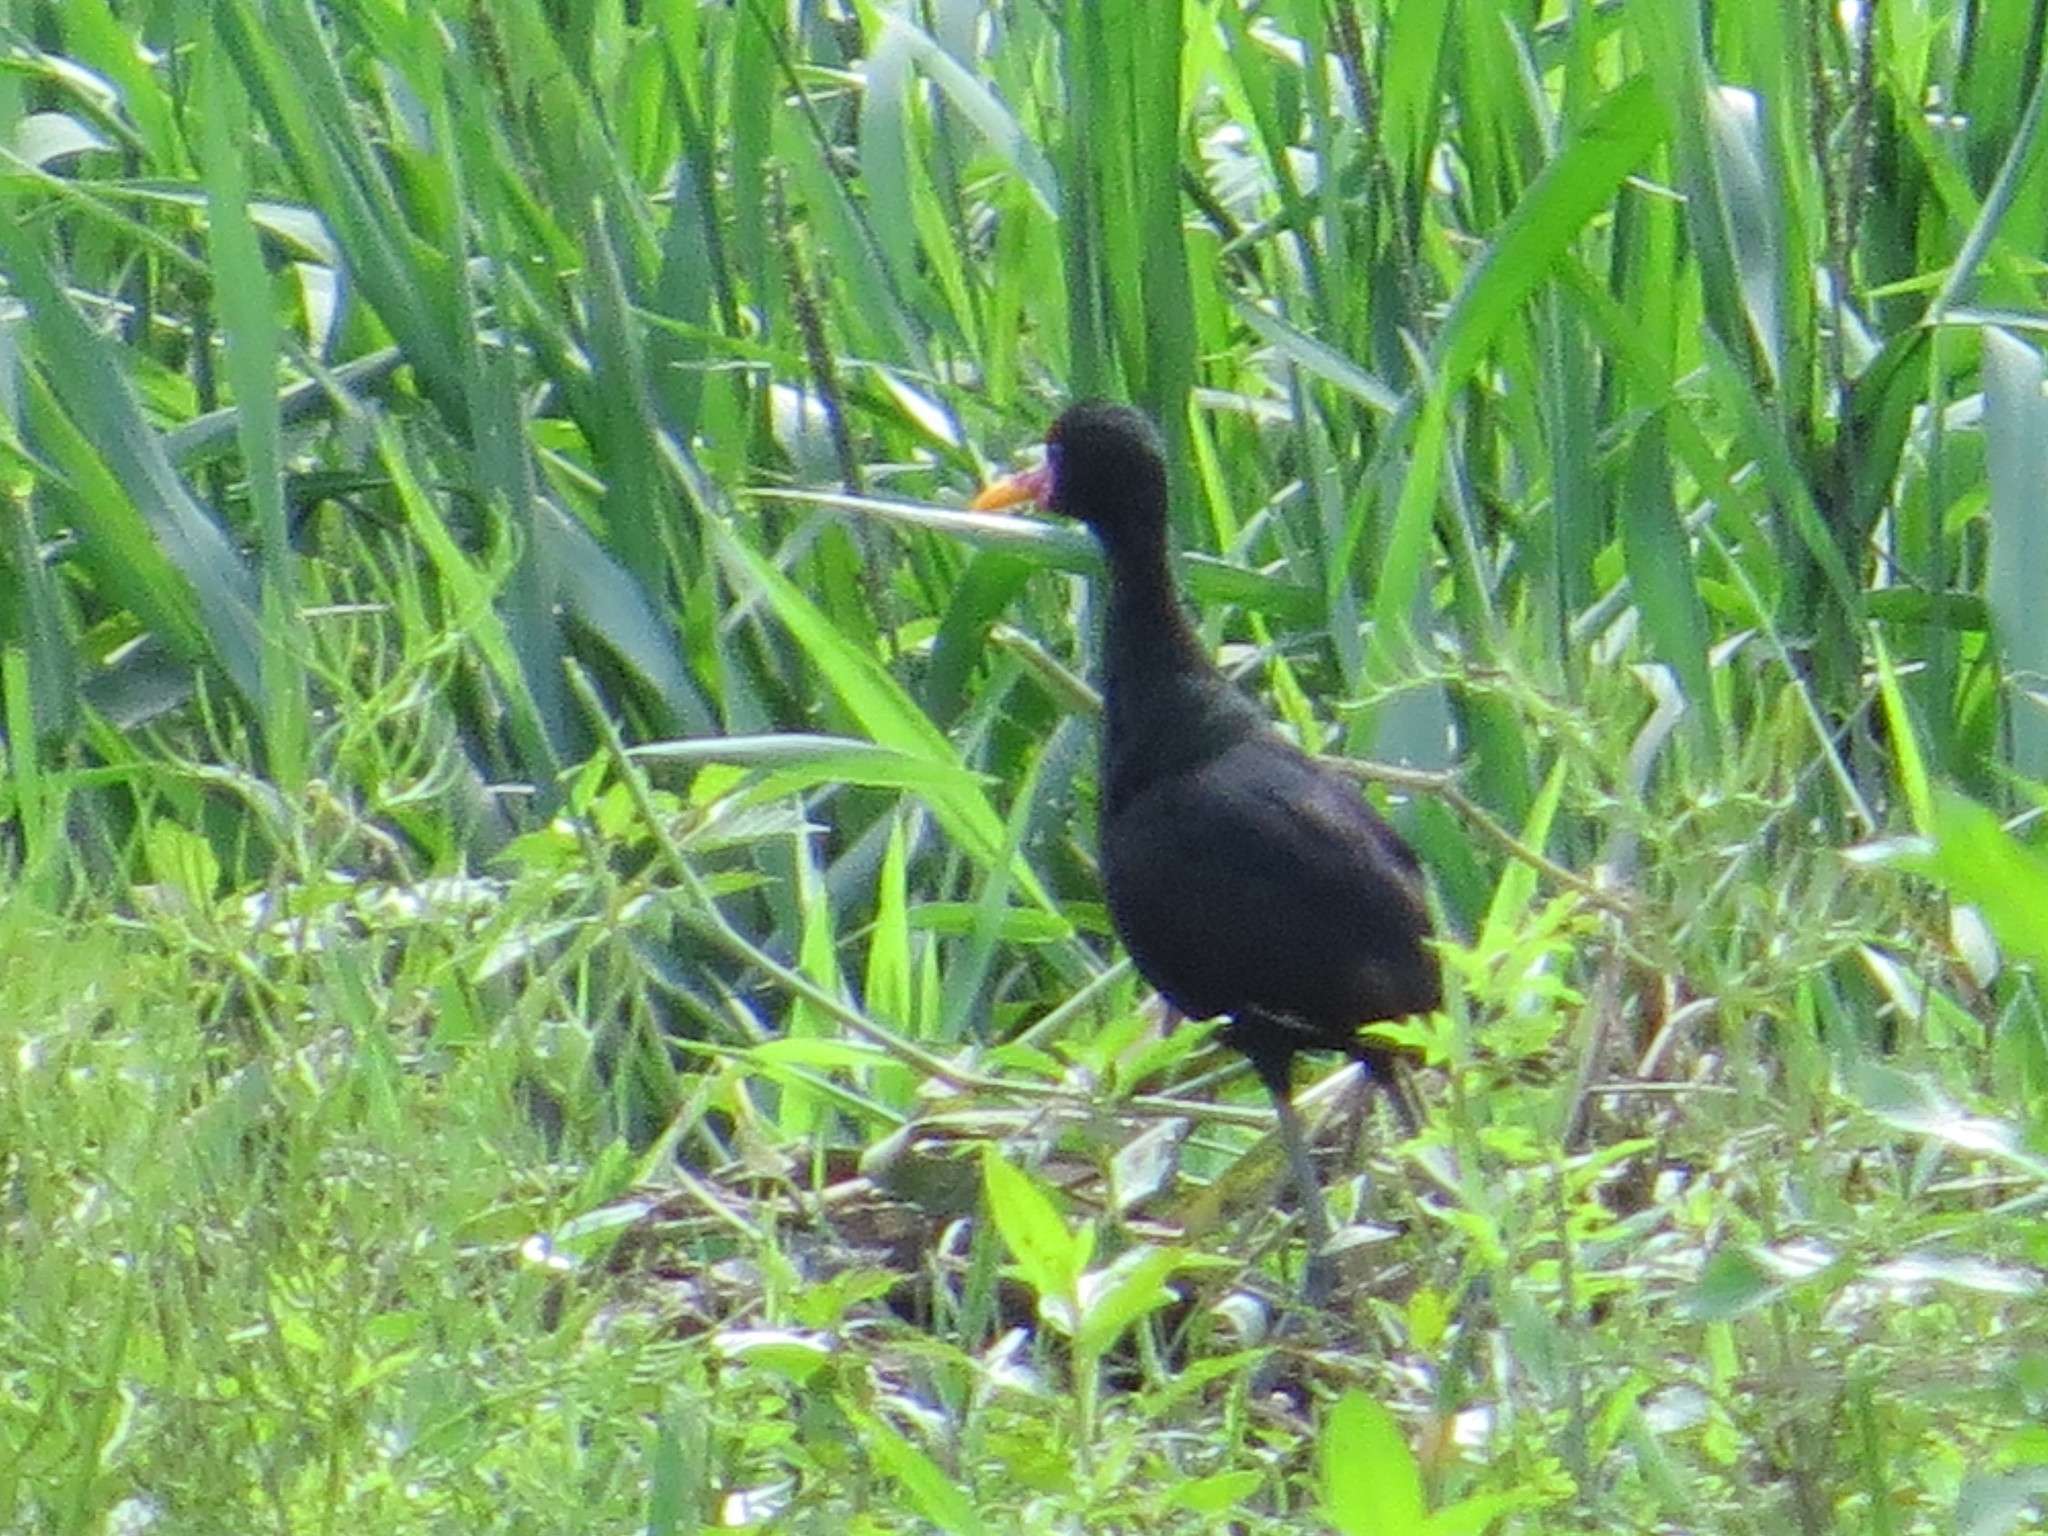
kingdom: Animalia
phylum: Chordata
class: Aves
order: Charadriiformes
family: Jacanidae
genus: Jacana
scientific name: Jacana jacana
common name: Wattled jacana
